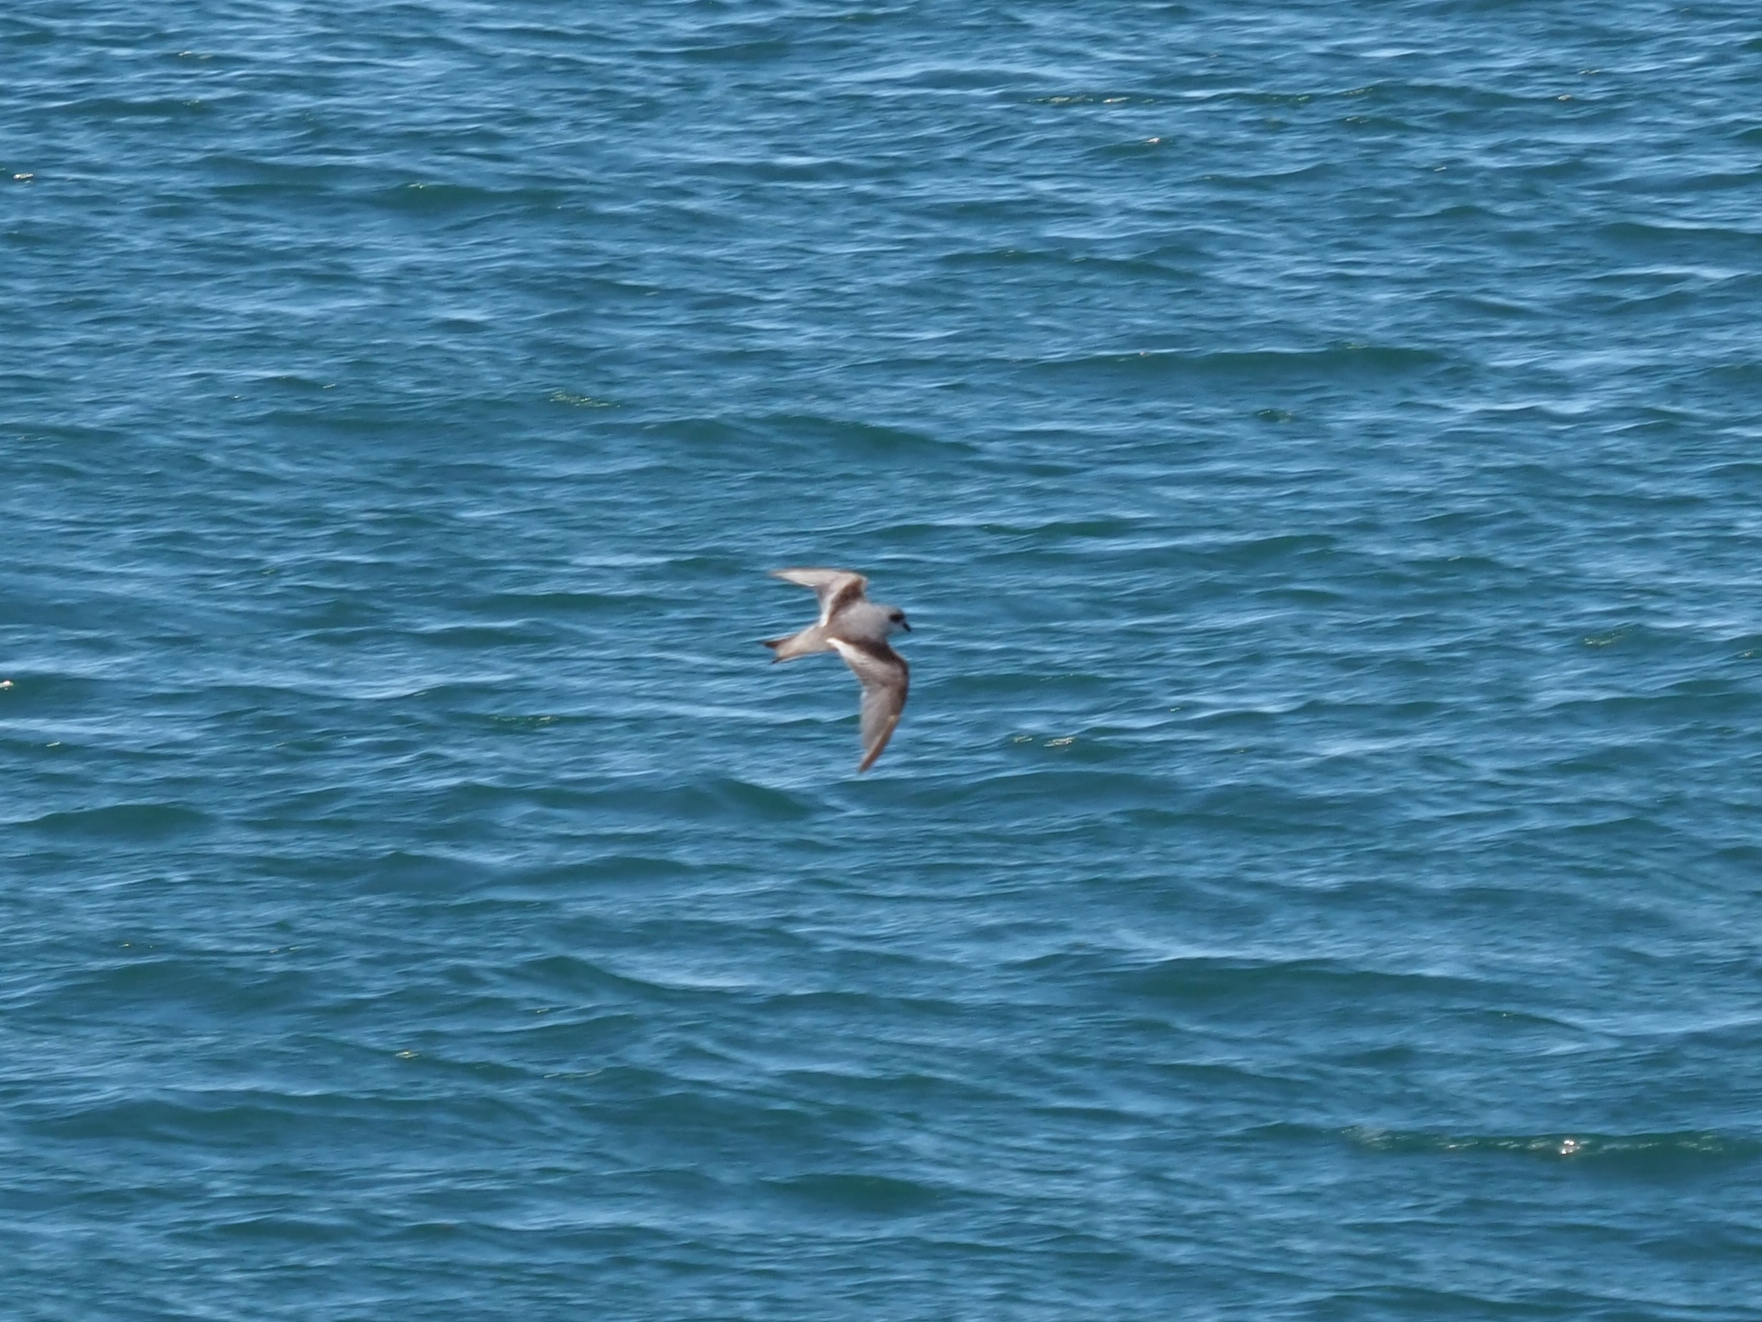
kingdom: Animalia
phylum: Chordata
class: Aves
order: Procellariiformes
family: Hydrobatidae
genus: Oceanodroma
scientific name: Oceanodroma furcata
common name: Fork-tailed storm-petrel
